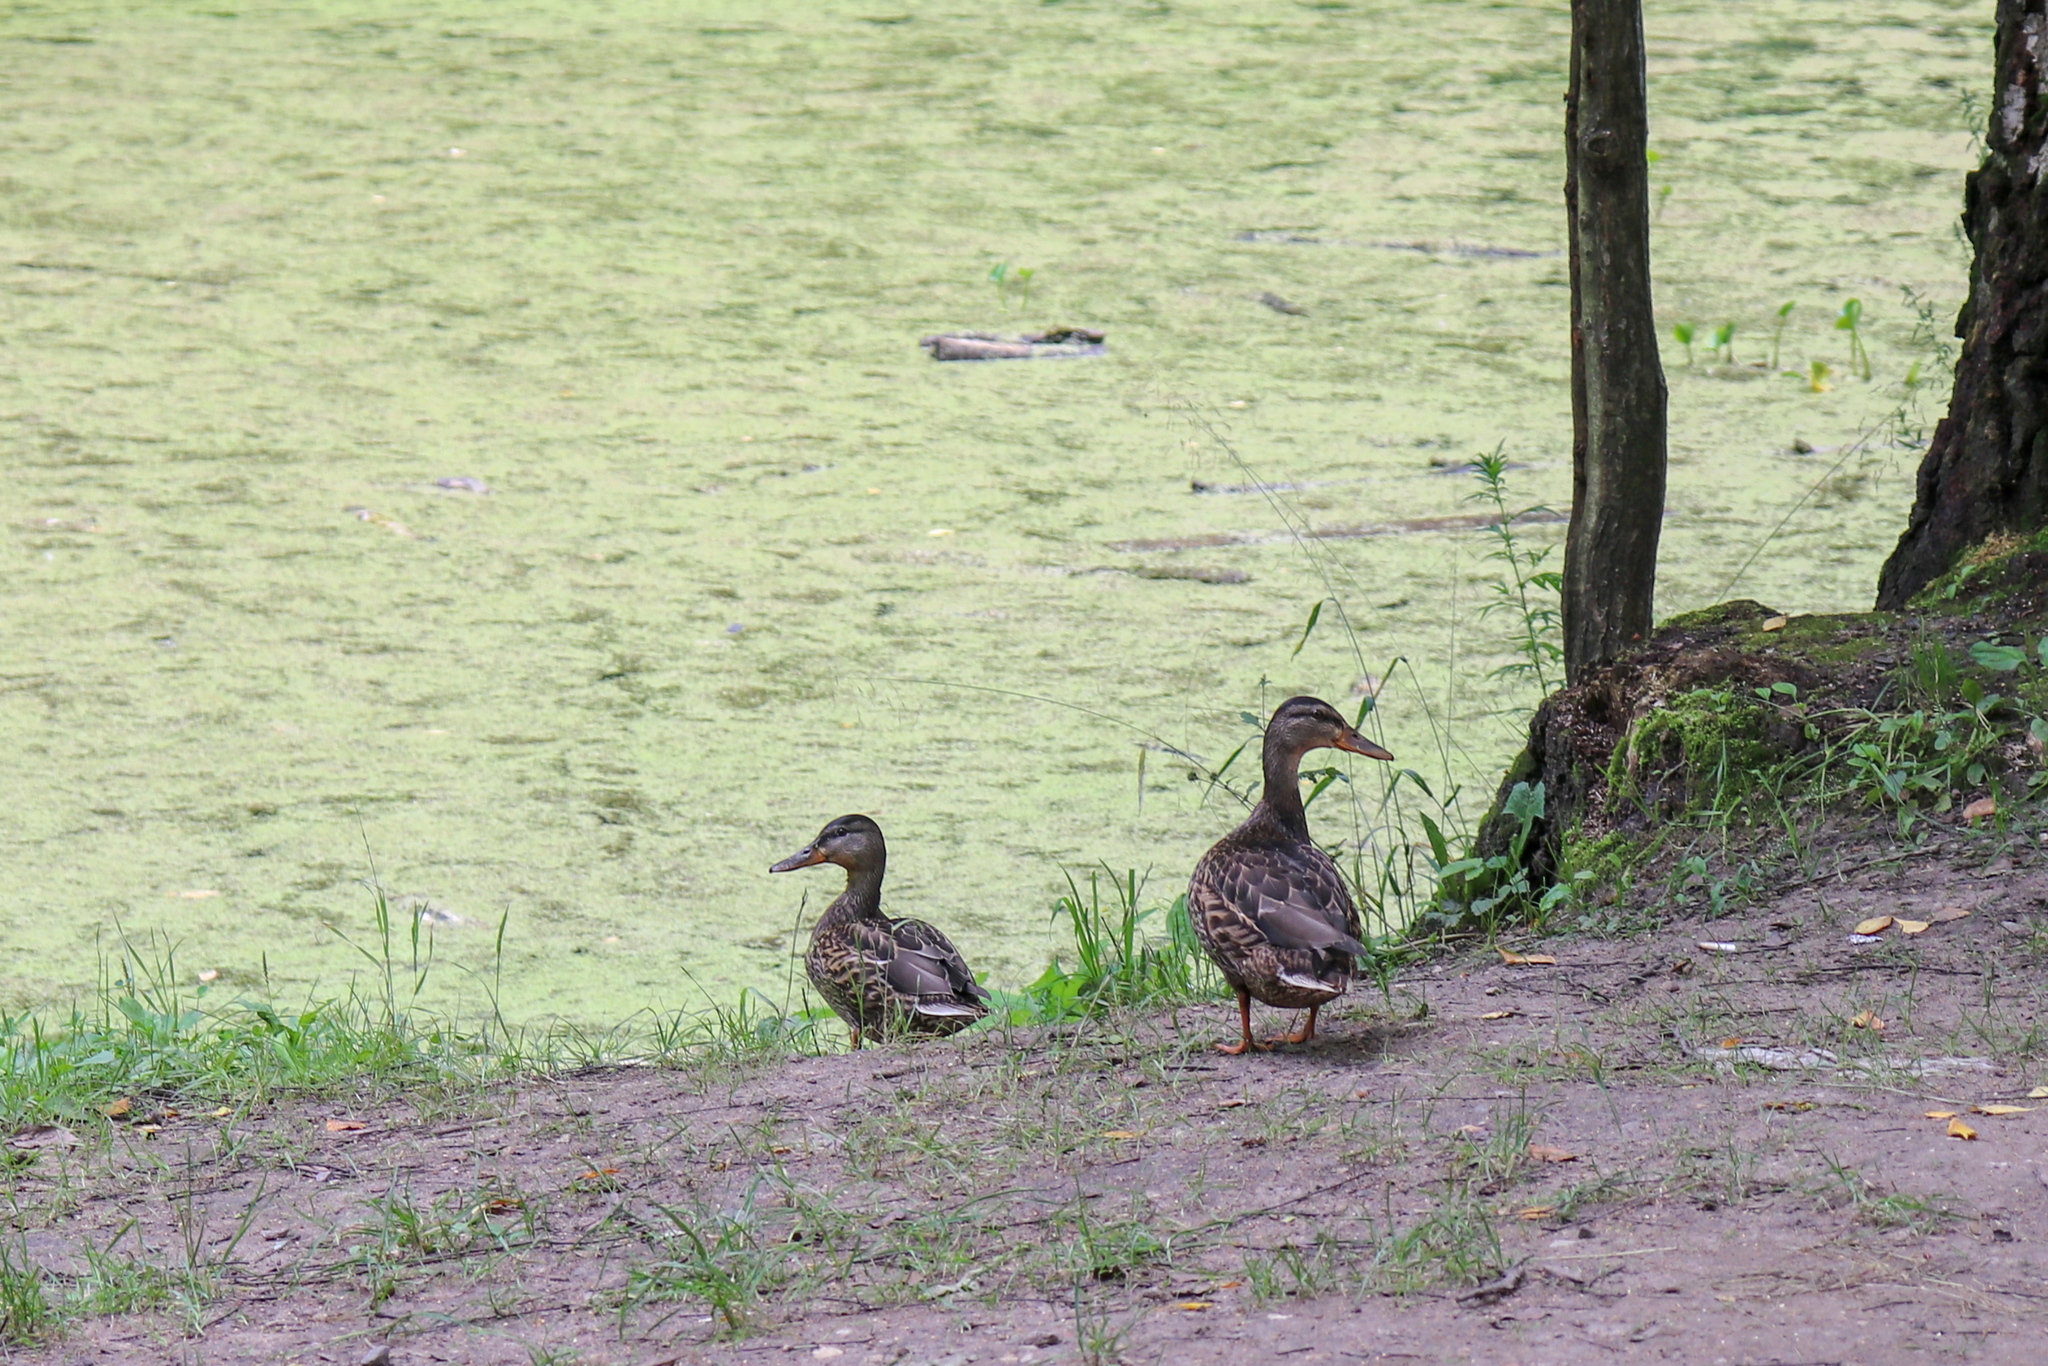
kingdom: Animalia
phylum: Chordata
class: Aves
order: Anseriformes
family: Anatidae
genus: Anas
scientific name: Anas platyrhynchos
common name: Mallard
